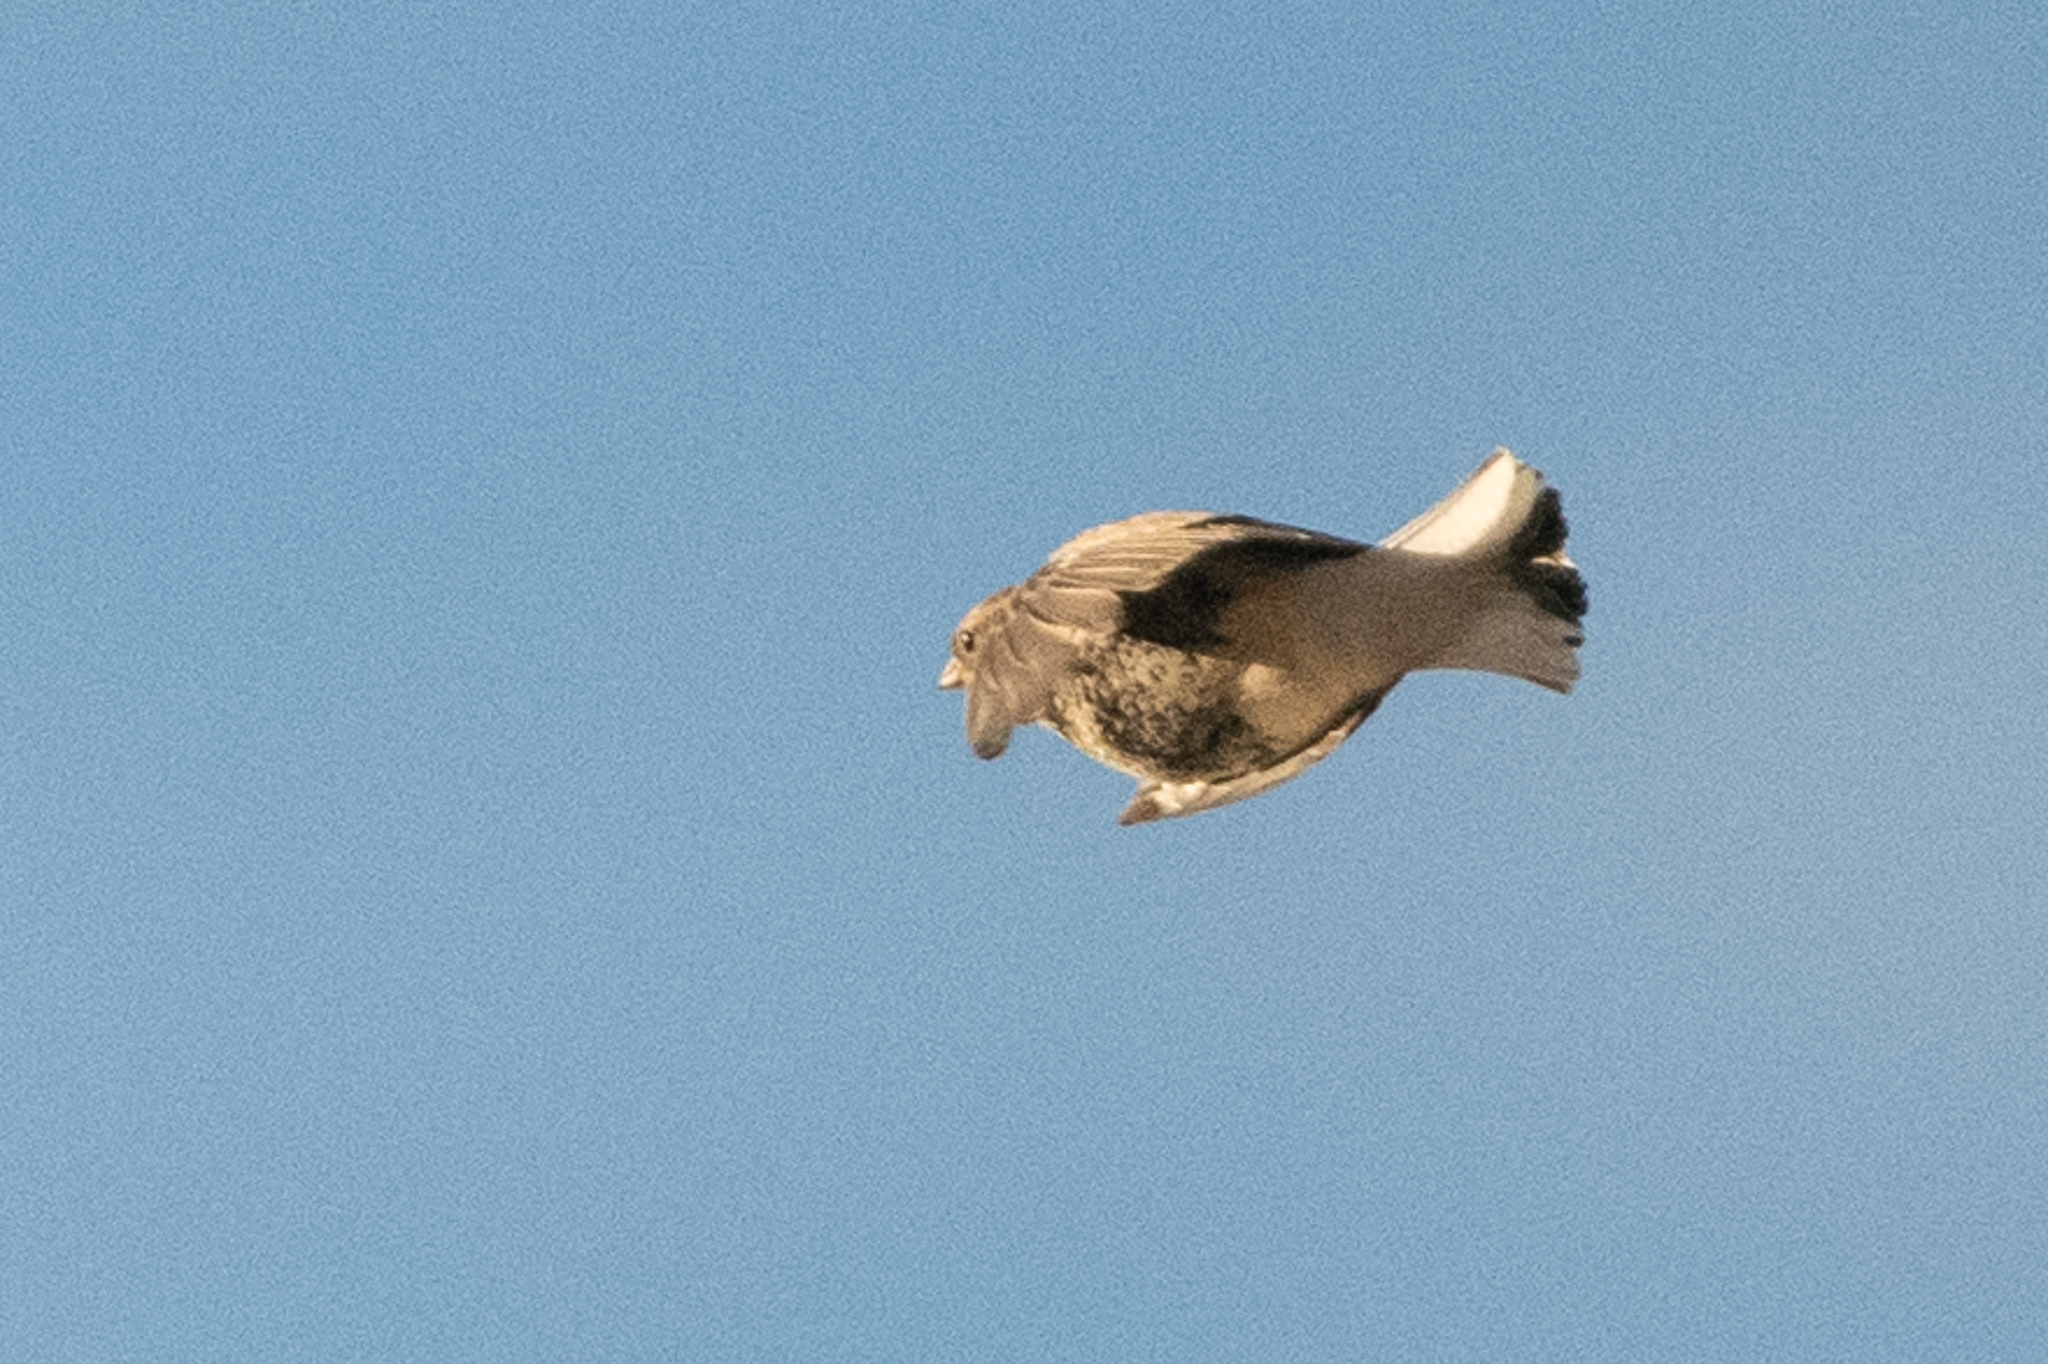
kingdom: Animalia
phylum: Chordata
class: Aves
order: Passeriformes
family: Calcariidae
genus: Calcarius
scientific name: Calcarius ornatus
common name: Chestnut-collared longspur
